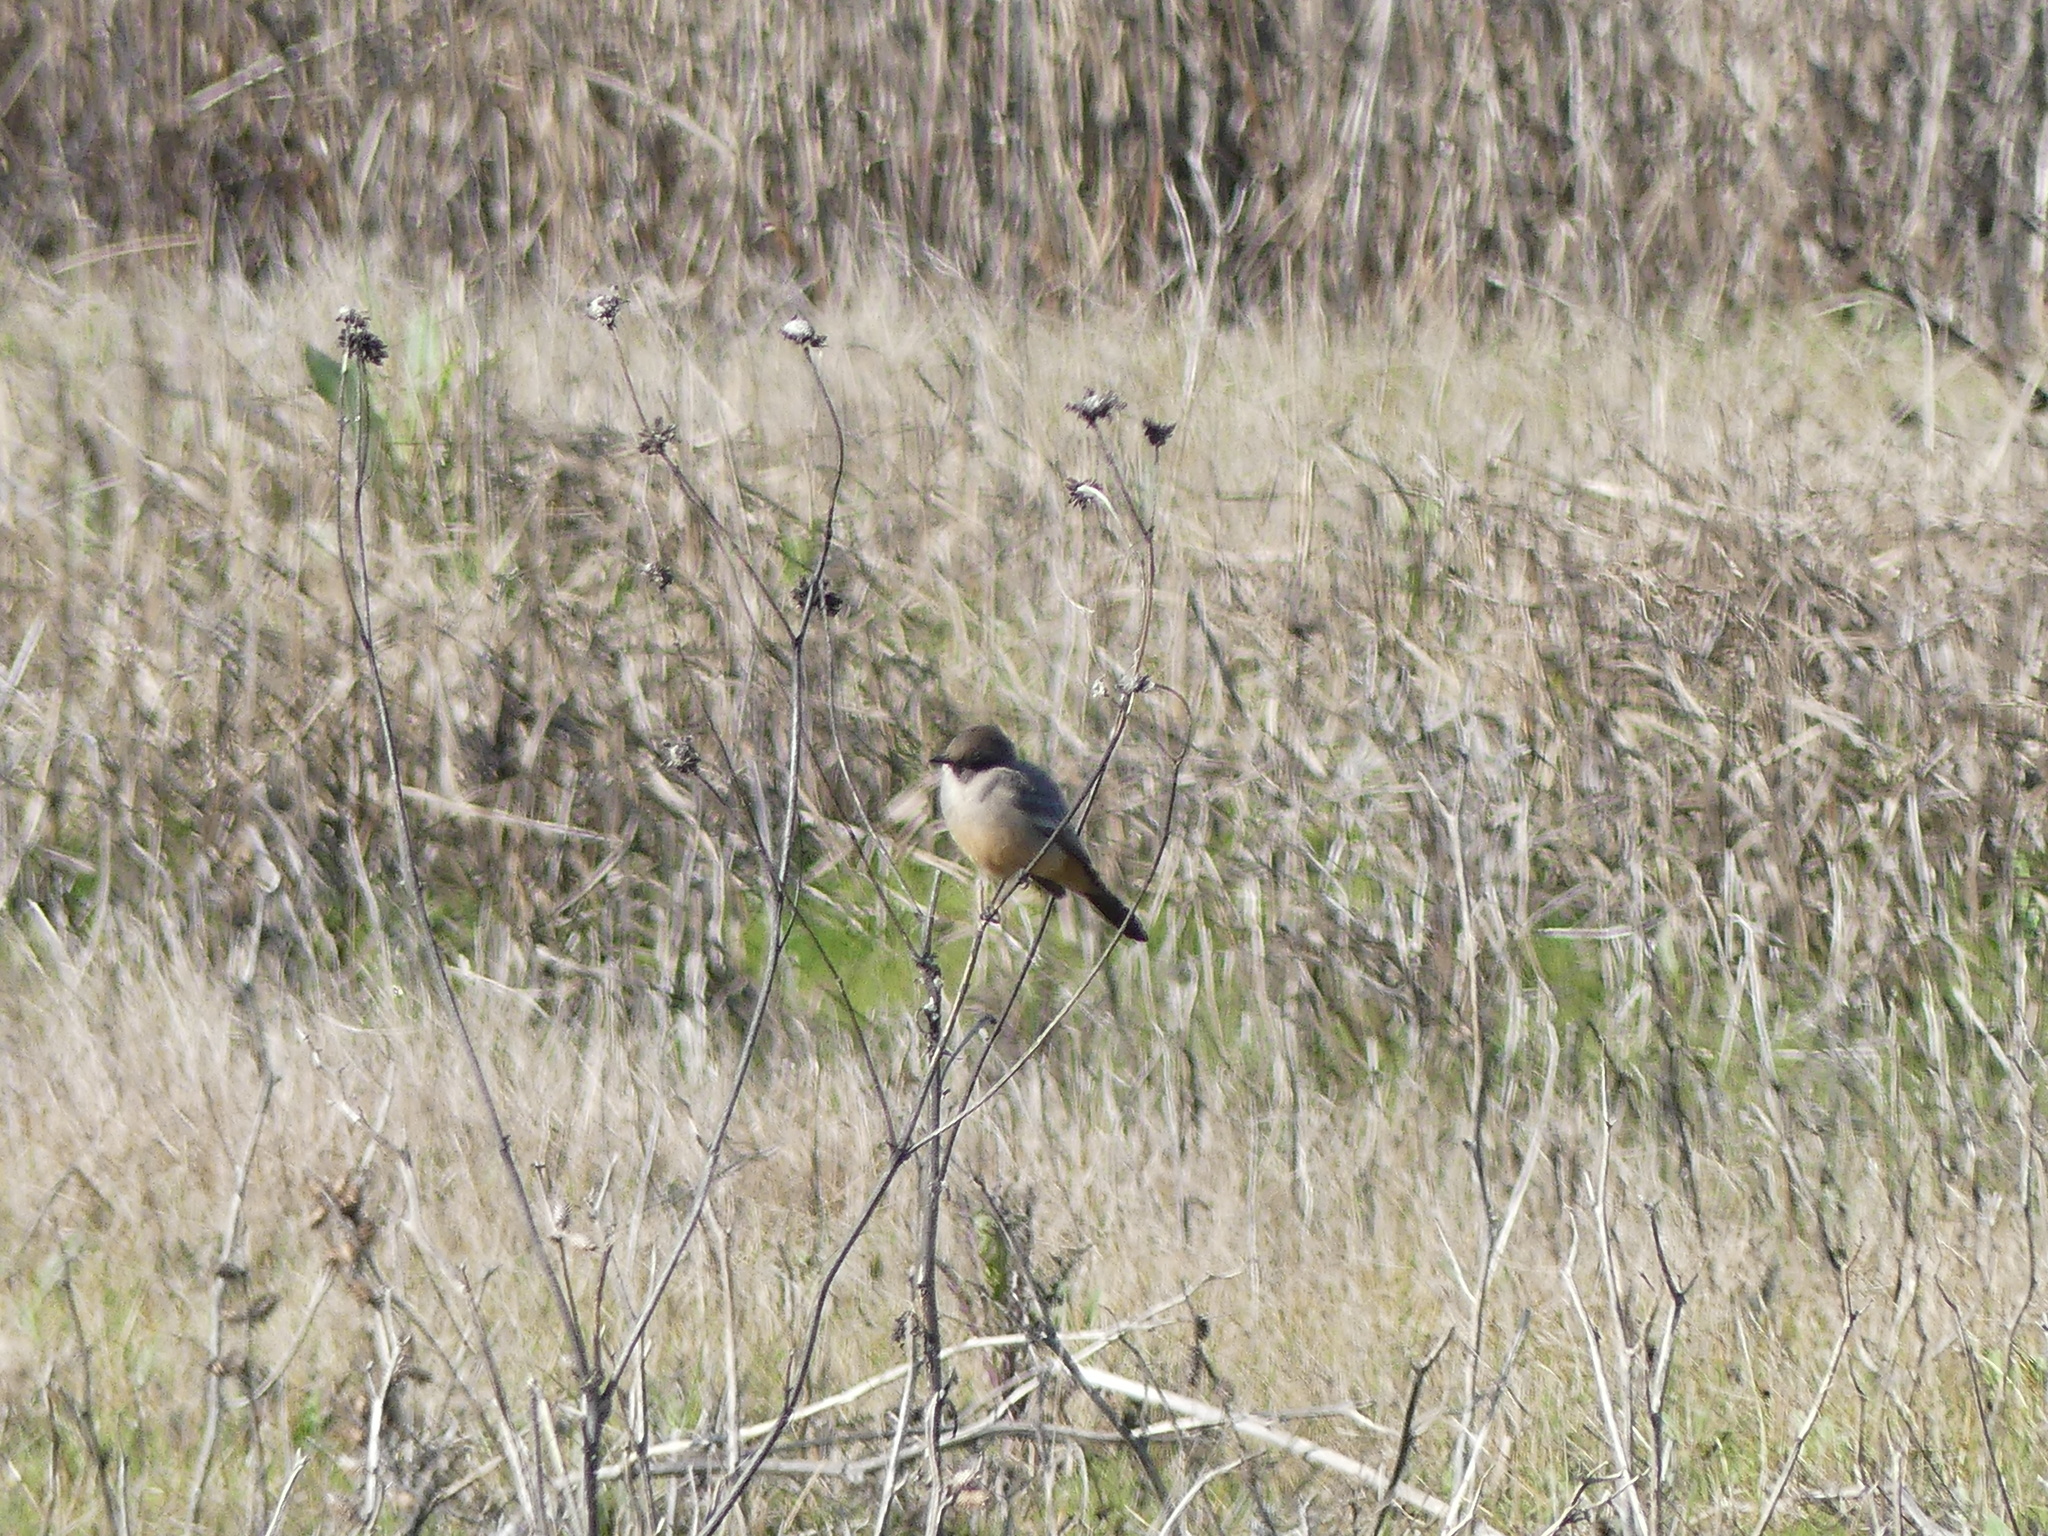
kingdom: Animalia
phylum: Chordata
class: Aves
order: Passeriformes
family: Tyrannidae
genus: Sayornis
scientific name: Sayornis saya
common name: Say's phoebe
